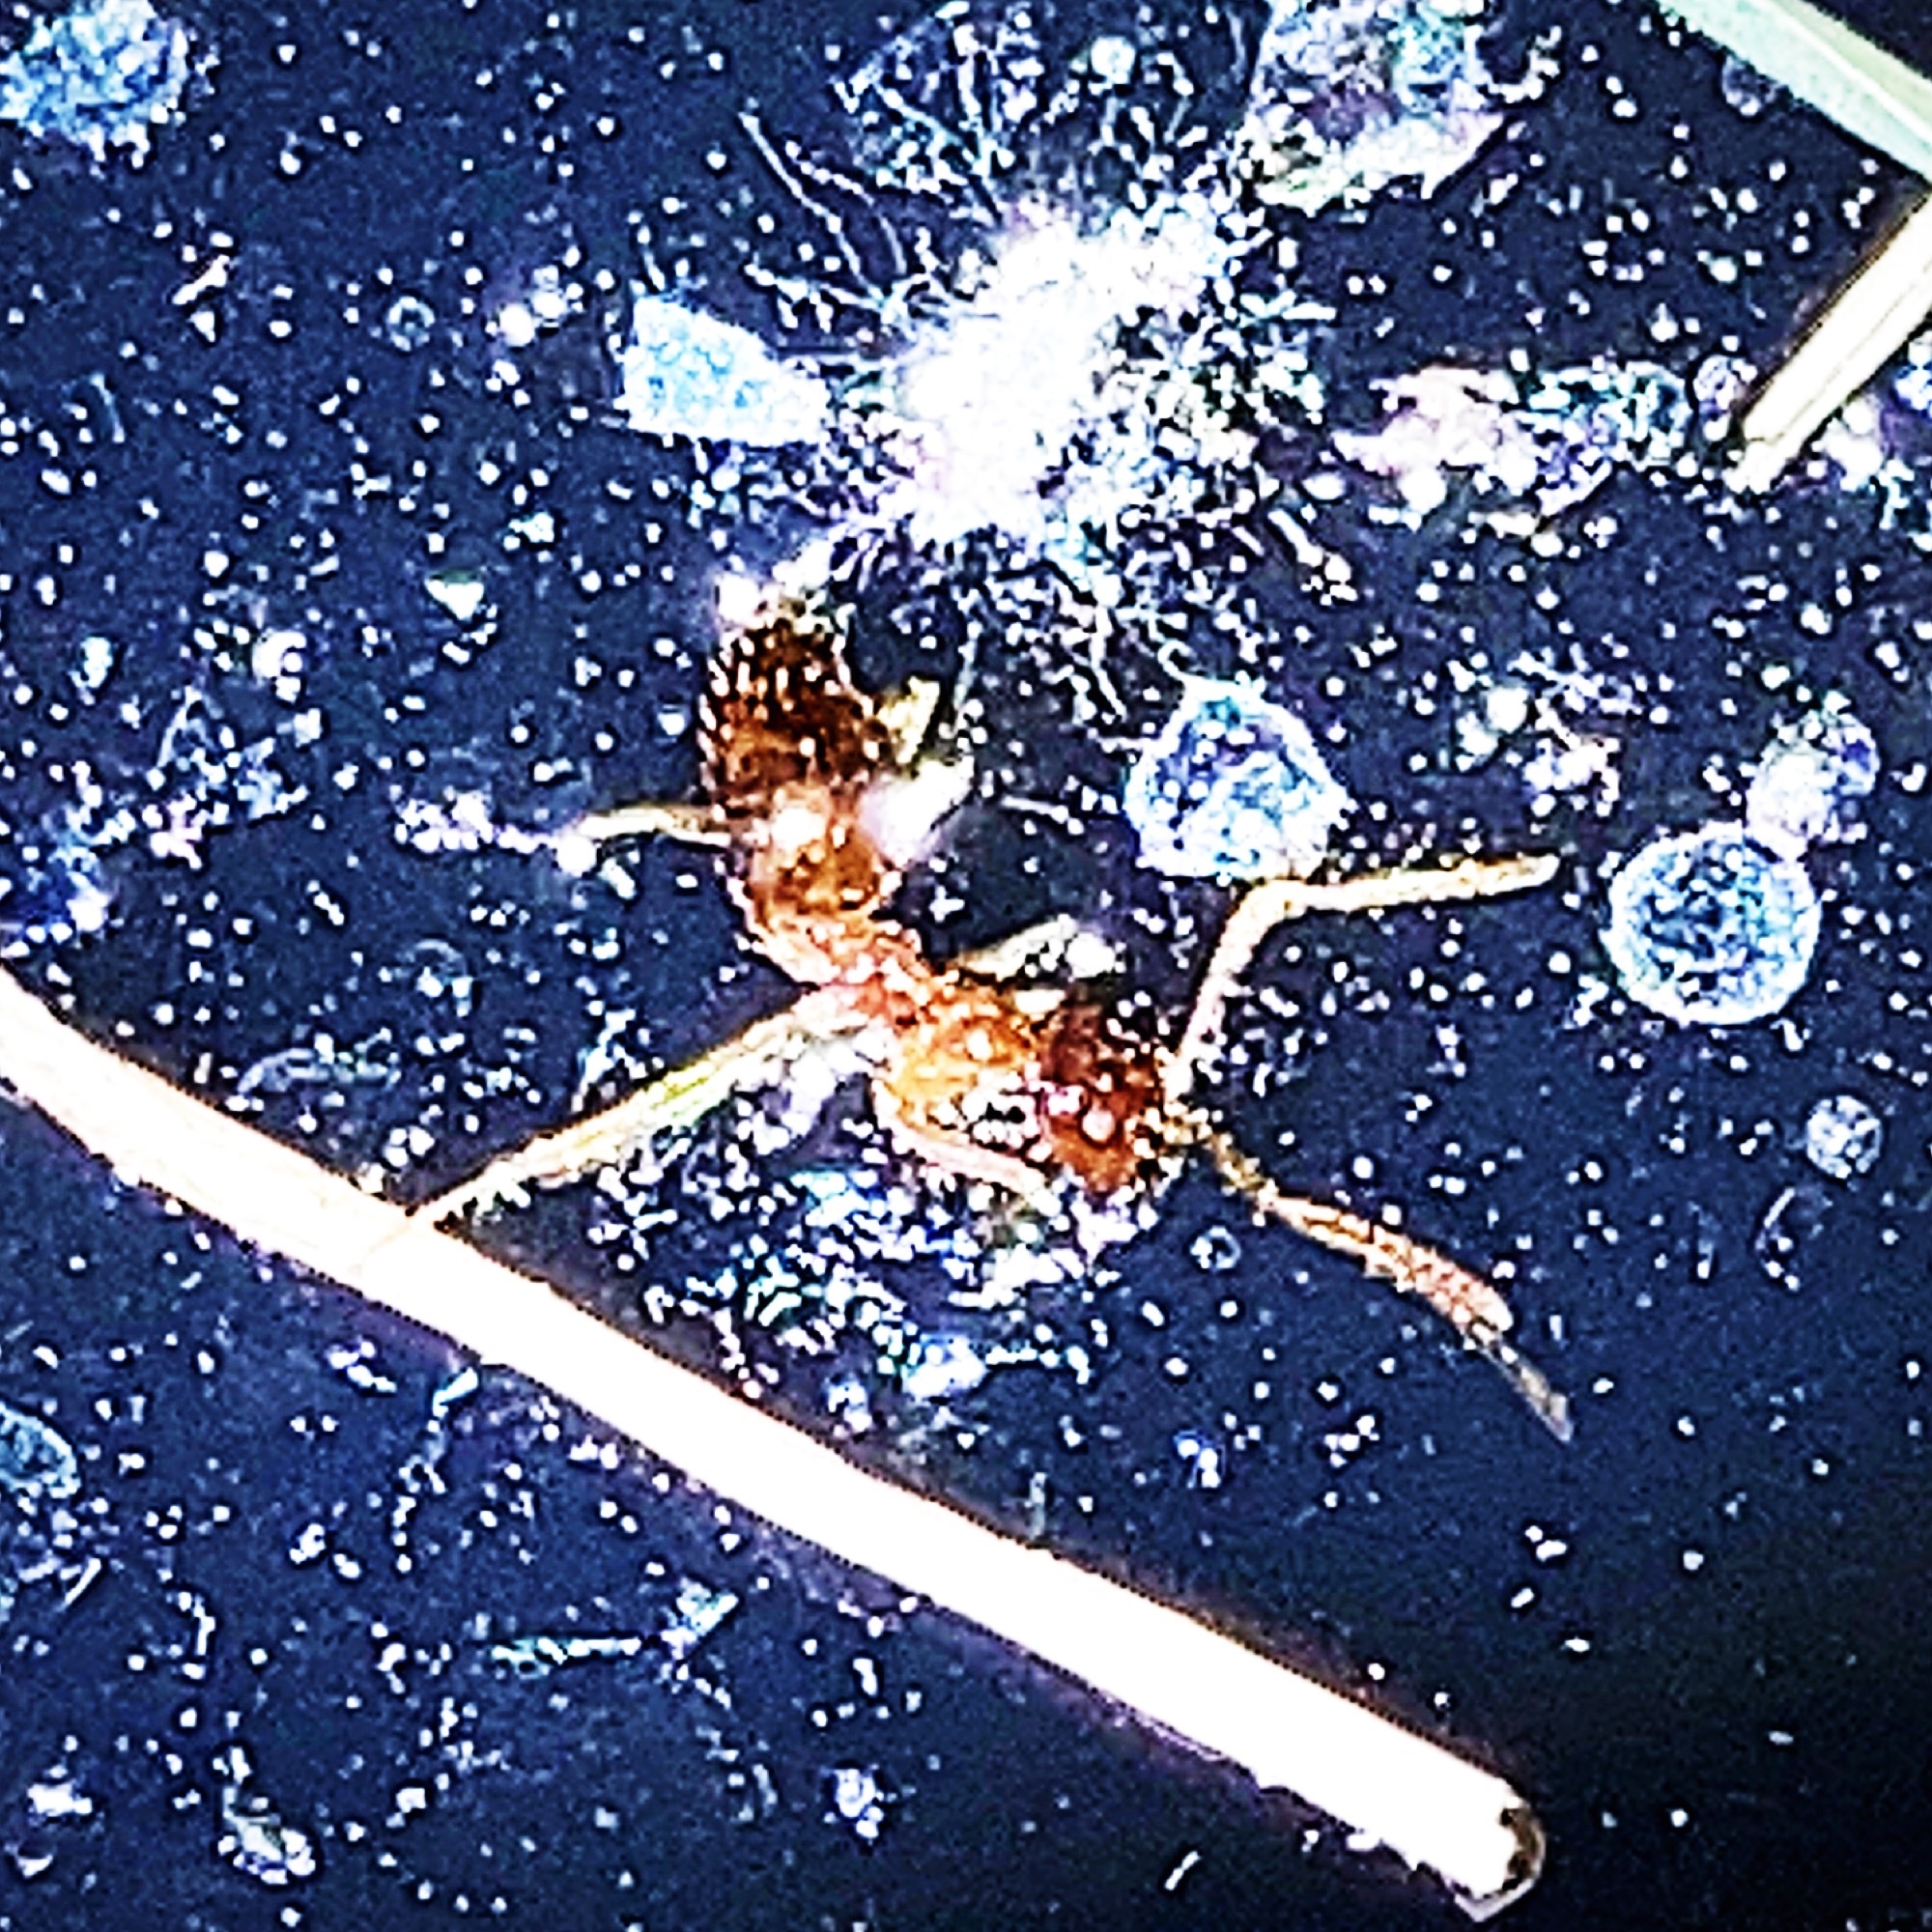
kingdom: Animalia
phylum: Arthropoda
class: Insecta
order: Hymenoptera
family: Formicidae
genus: Prenolepis
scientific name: Prenolepis imparis
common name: Small honey ant
